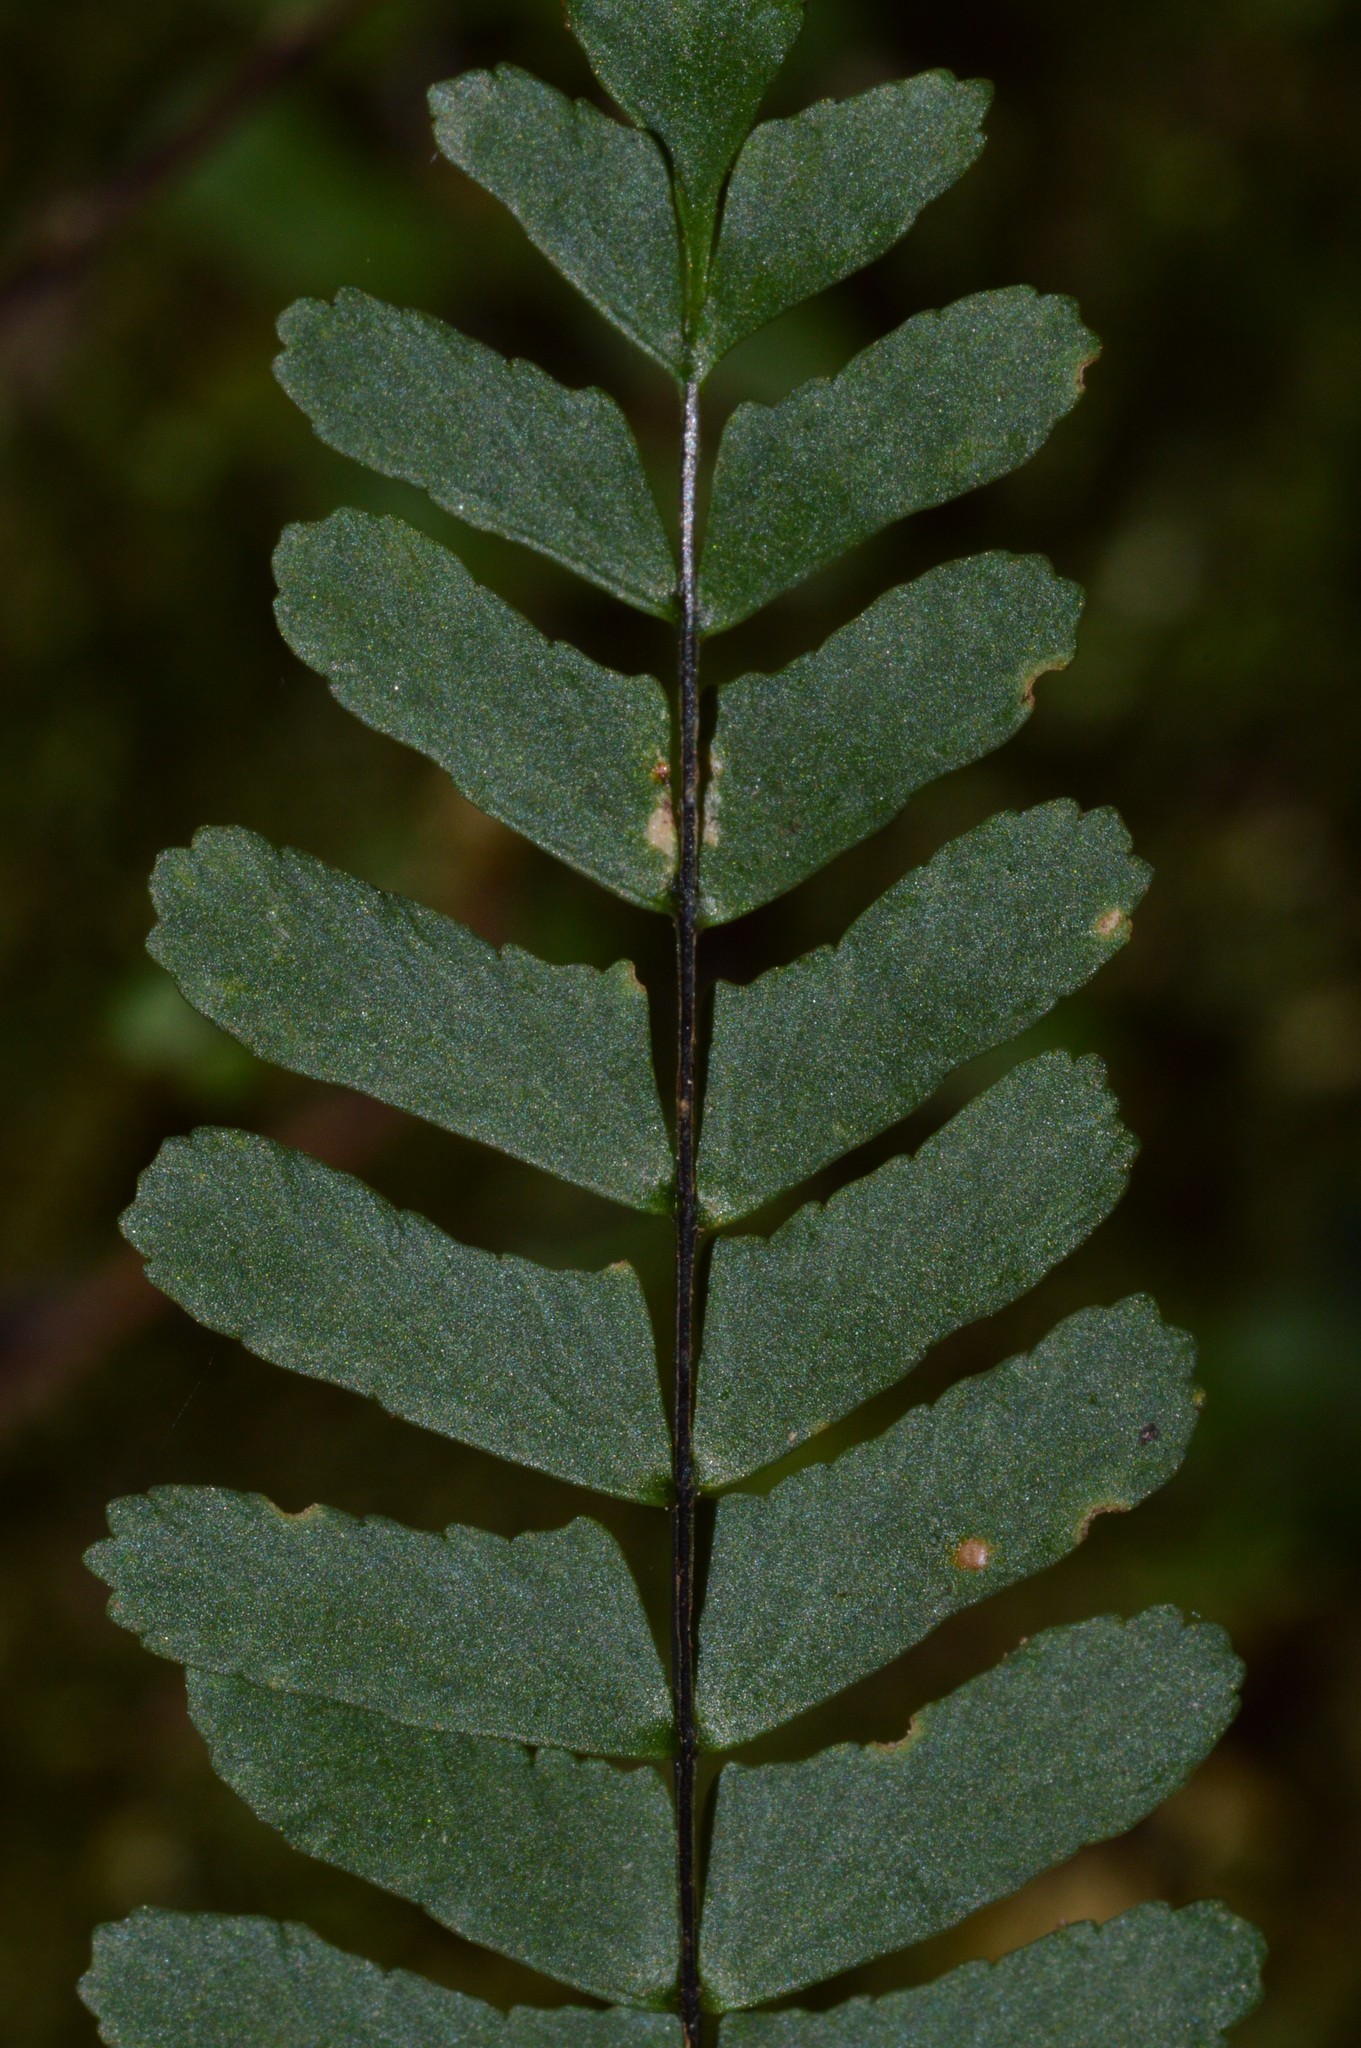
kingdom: Plantae
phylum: Tracheophyta
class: Polypodiopsida
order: Polypodiales
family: Aspleniaceae
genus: Asplenium
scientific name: Asplenium resiliens
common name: Blackstem spleenwort
